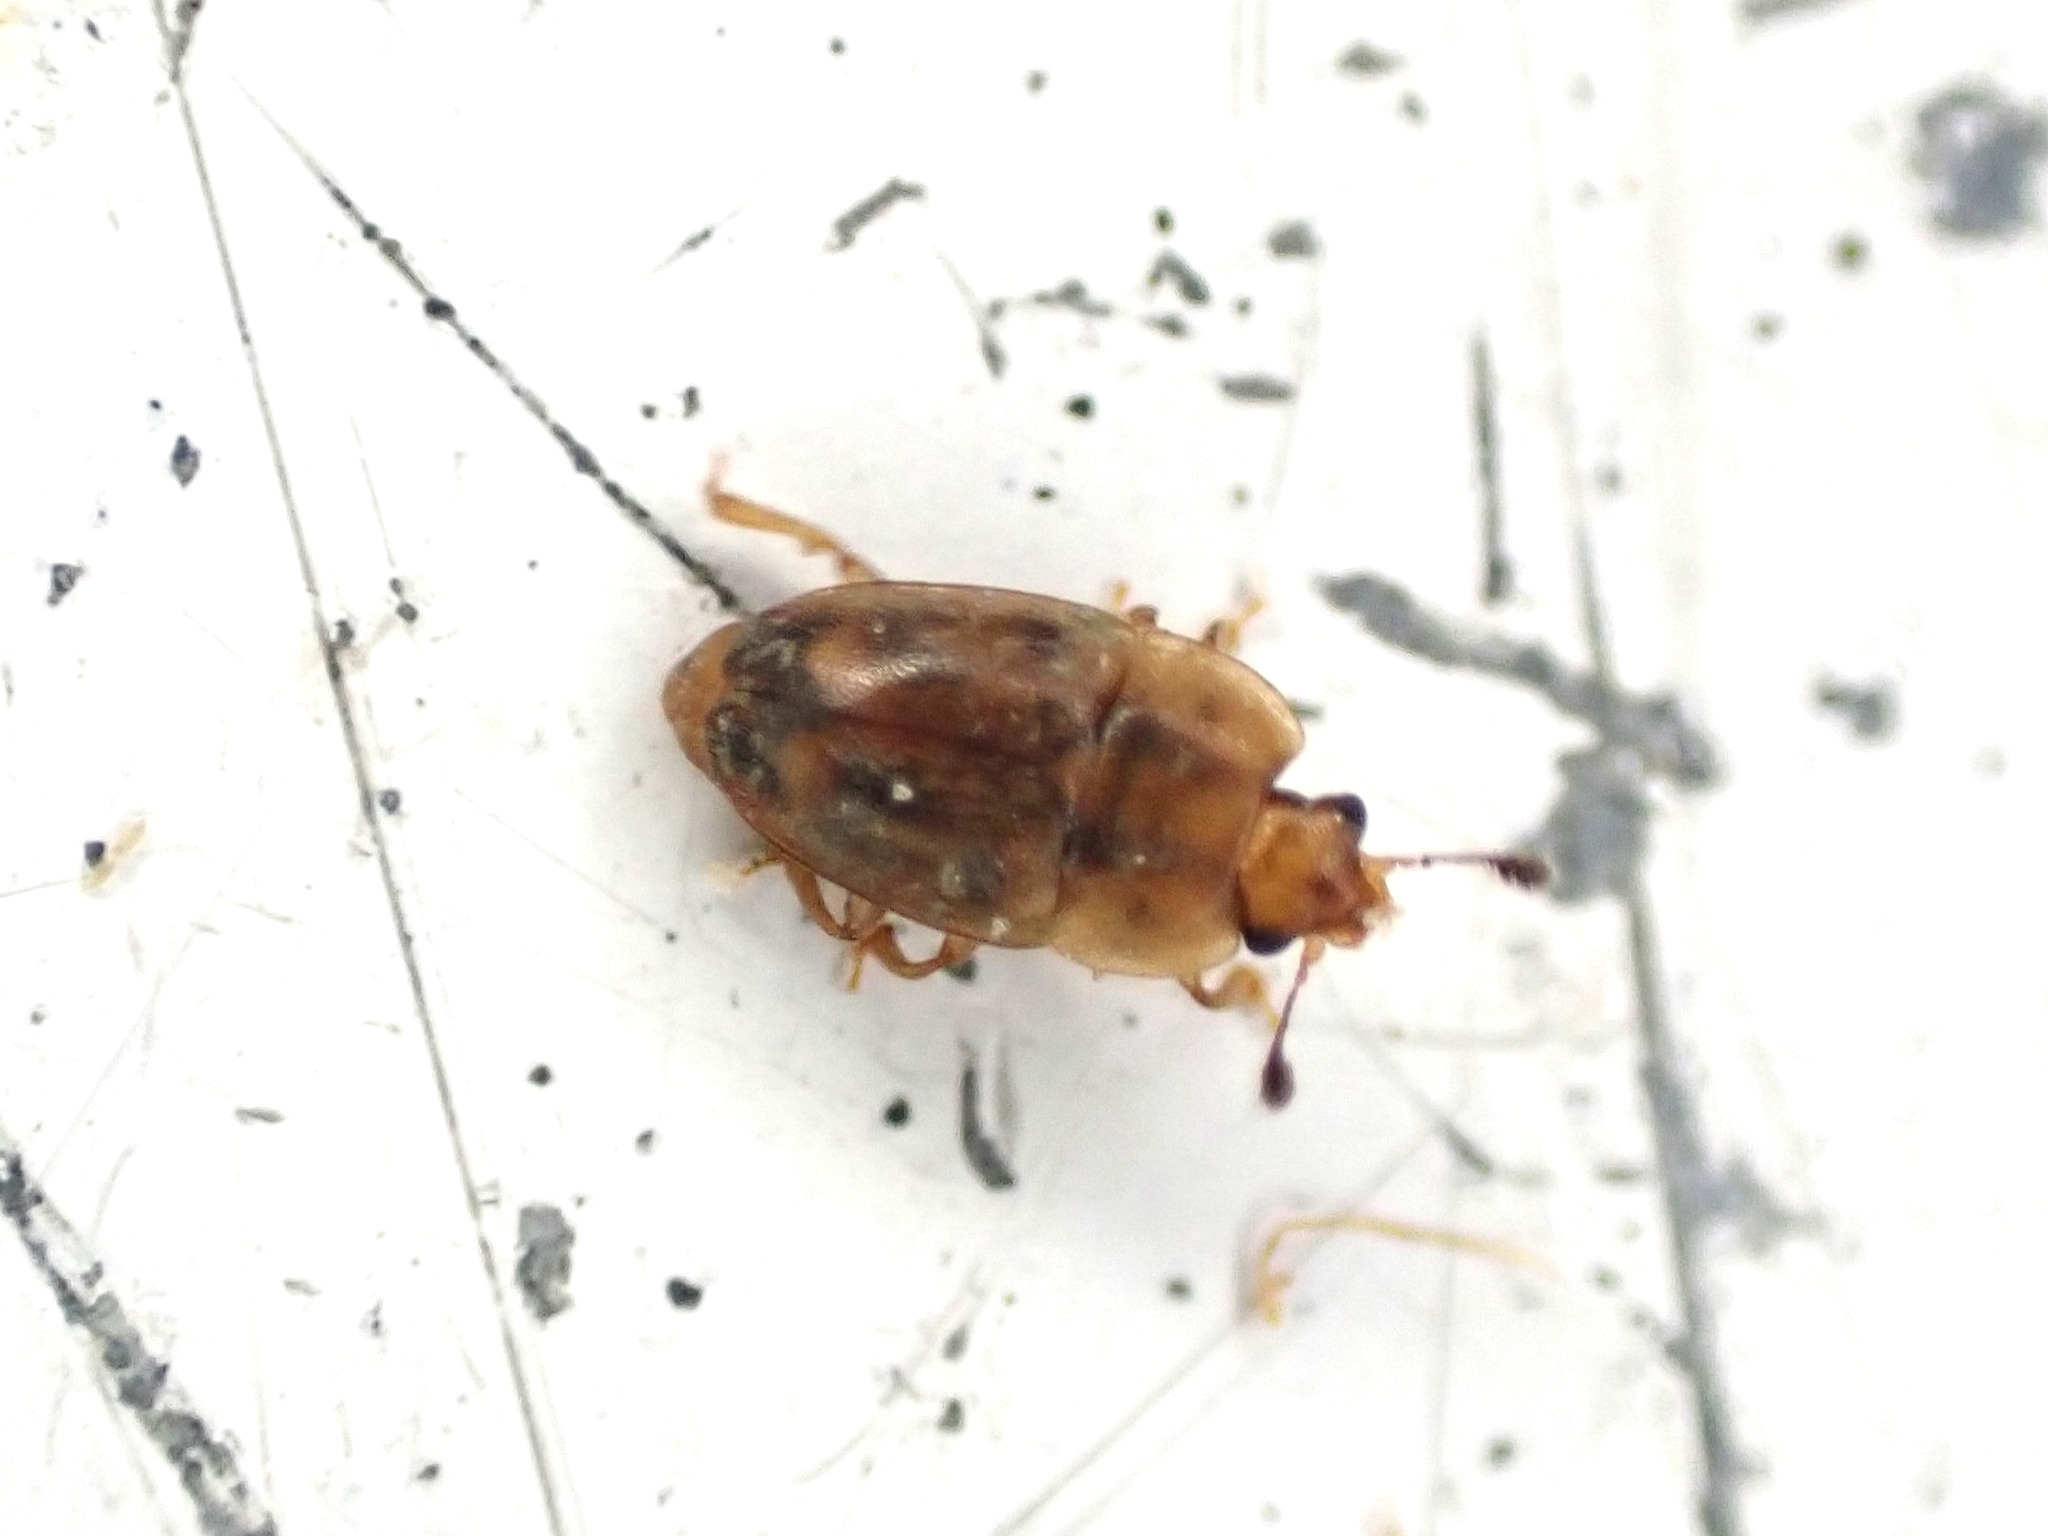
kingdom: Animalia
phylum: Arthropoda
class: Insecta
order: Coleoptera
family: Nitidulidae
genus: Epuraea
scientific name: Epuraea imperialis
